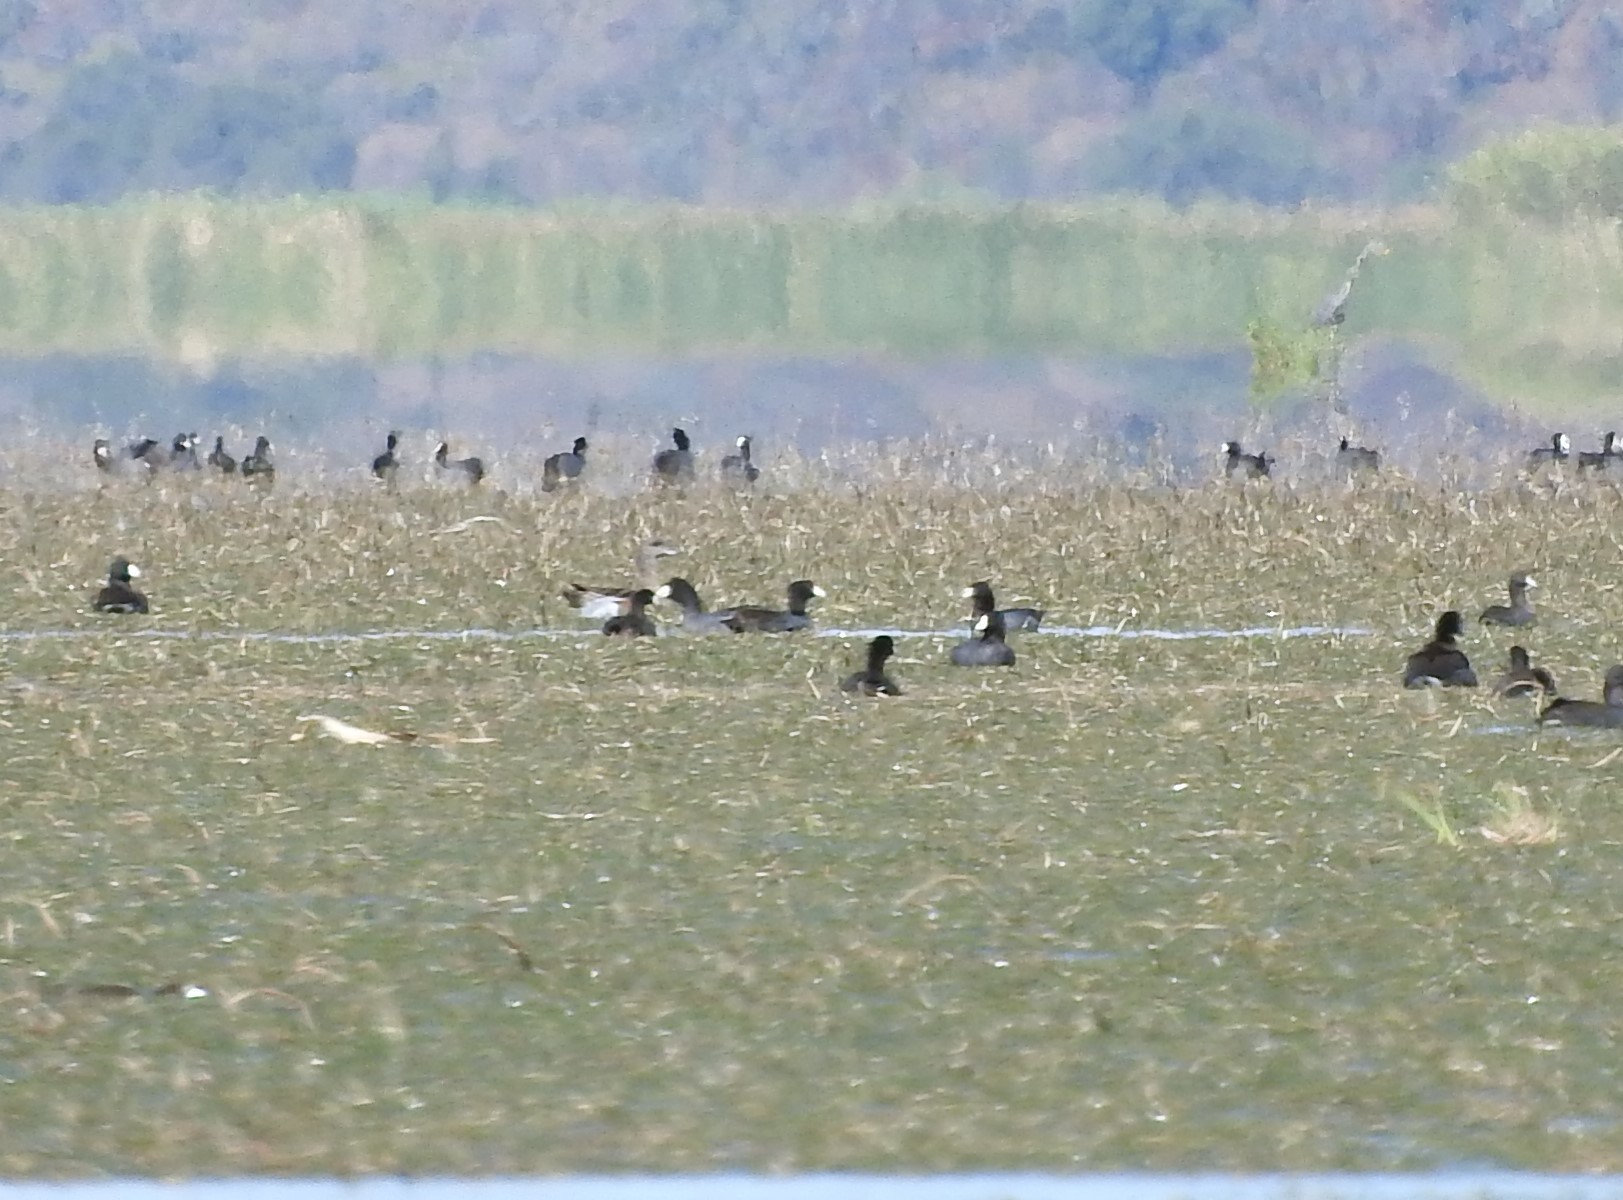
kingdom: Animalia
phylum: Chordata
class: Aves
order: Anseriformes
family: Anatidae
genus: Mareca
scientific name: Mareca americana
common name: American wigeon
